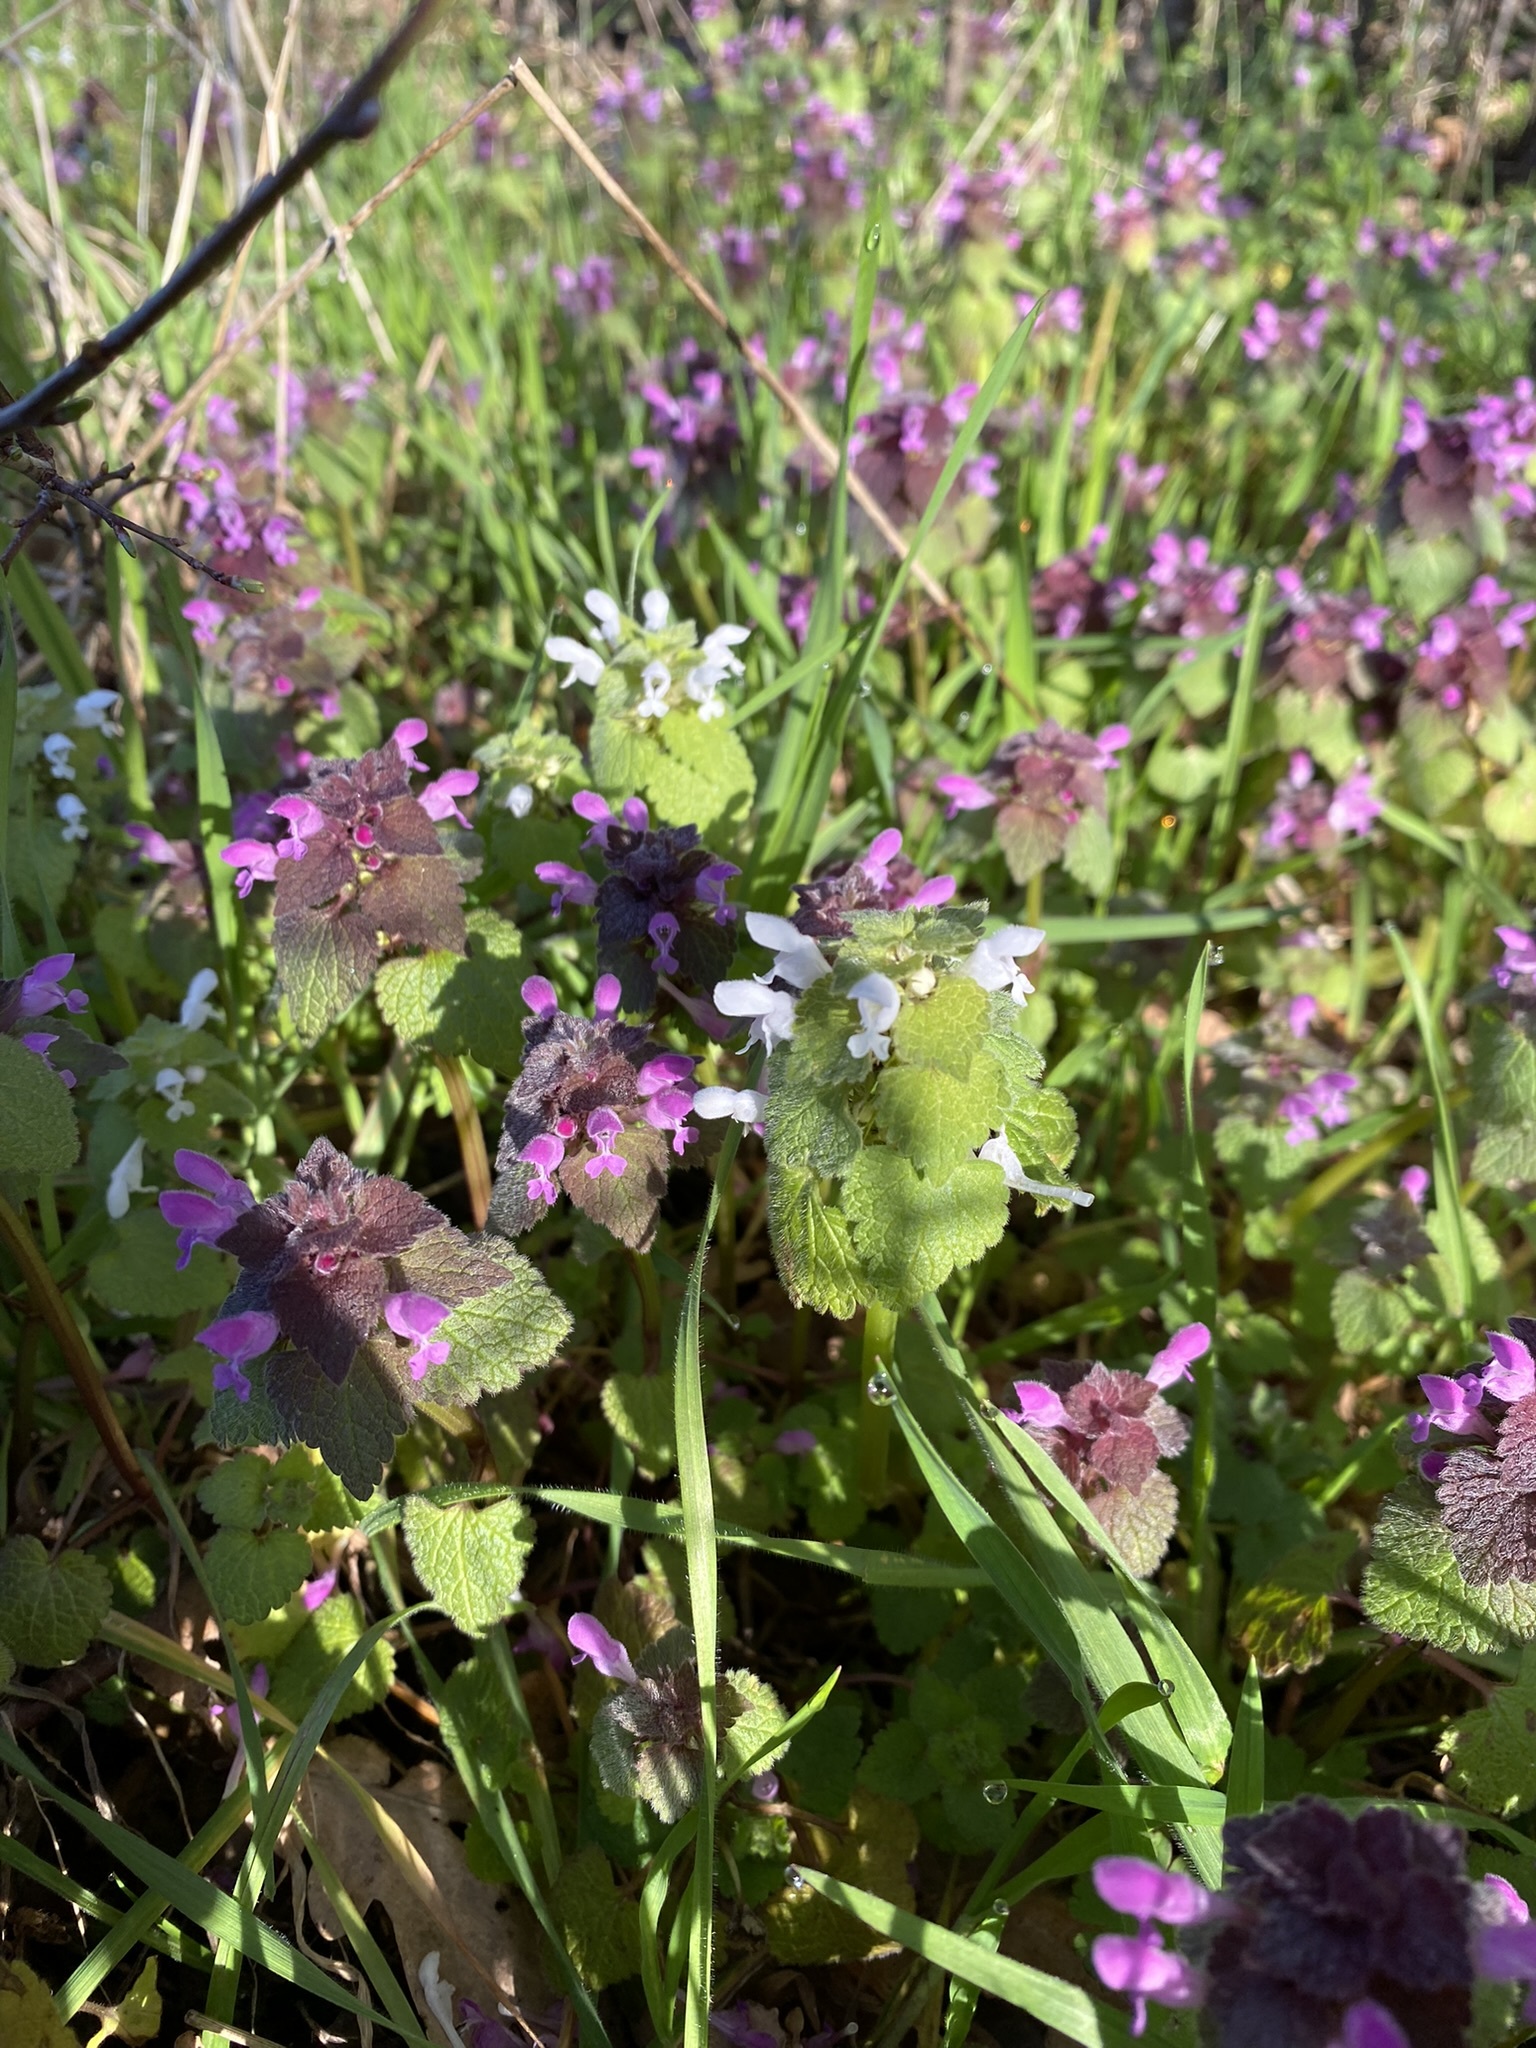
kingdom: Plantae
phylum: Tracheophyta
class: Magnoliopsida
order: Lamiales
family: Lamiaceae
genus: Lamium
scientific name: Lamium purpureum
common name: Red dead-nettle
